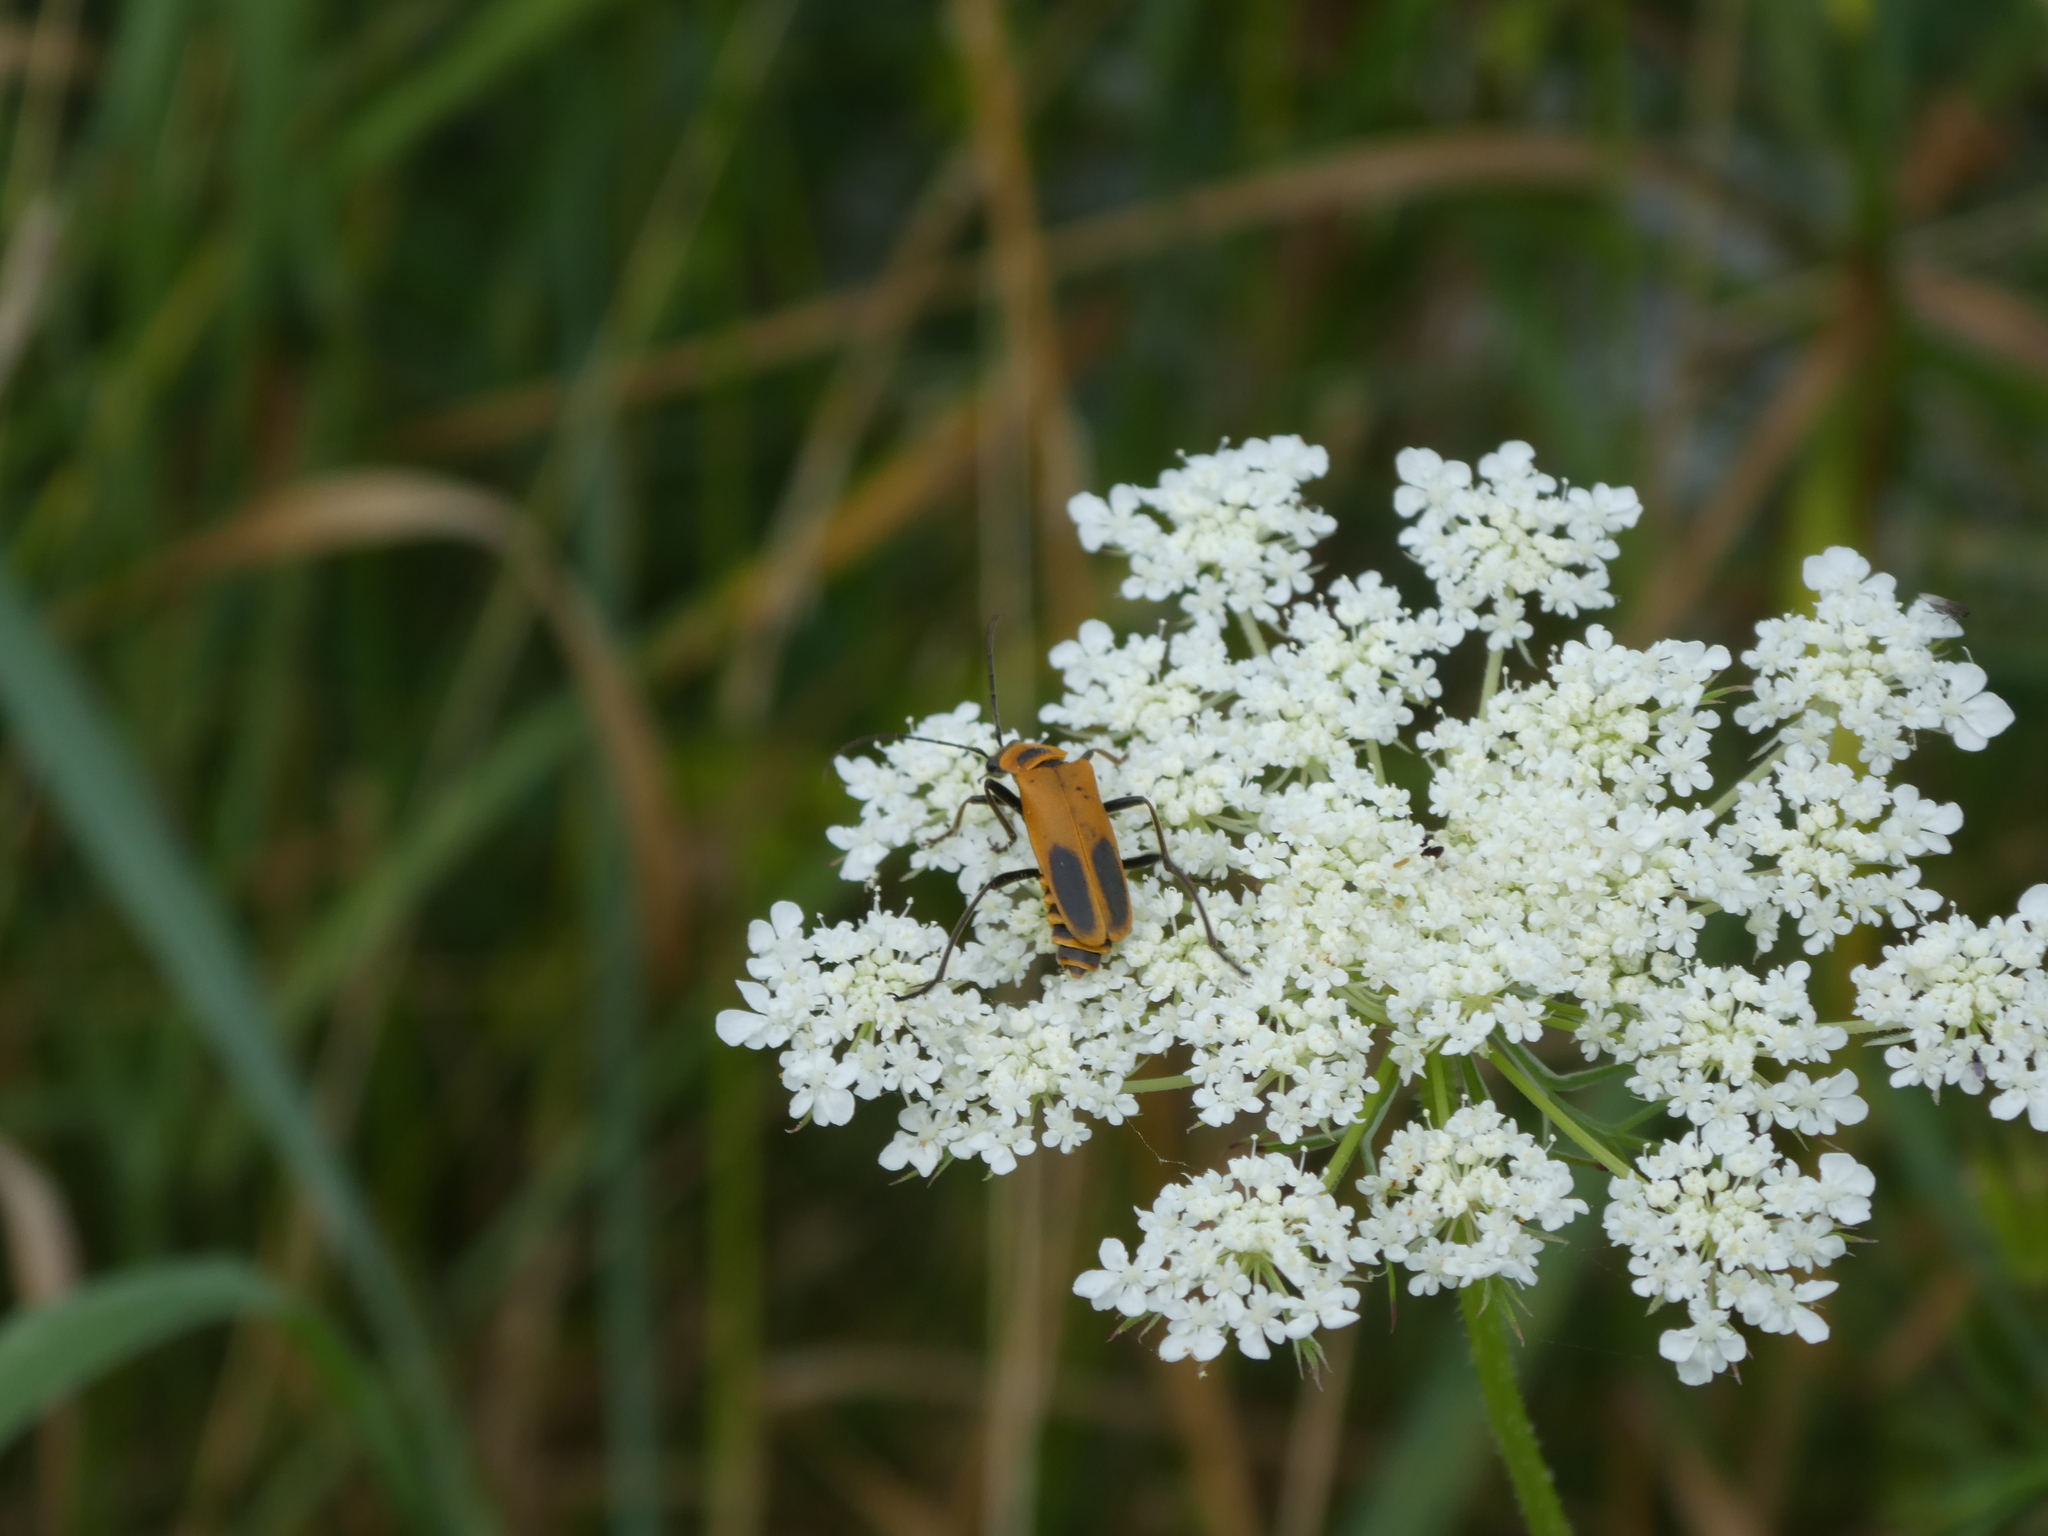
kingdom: Animalia
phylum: Arthropoda
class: Insecta
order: Coleoptera
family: Cantharidae
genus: Chauliognathus
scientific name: Chauliognathus pensylvanicus
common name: Goldenrod soldier beetle
